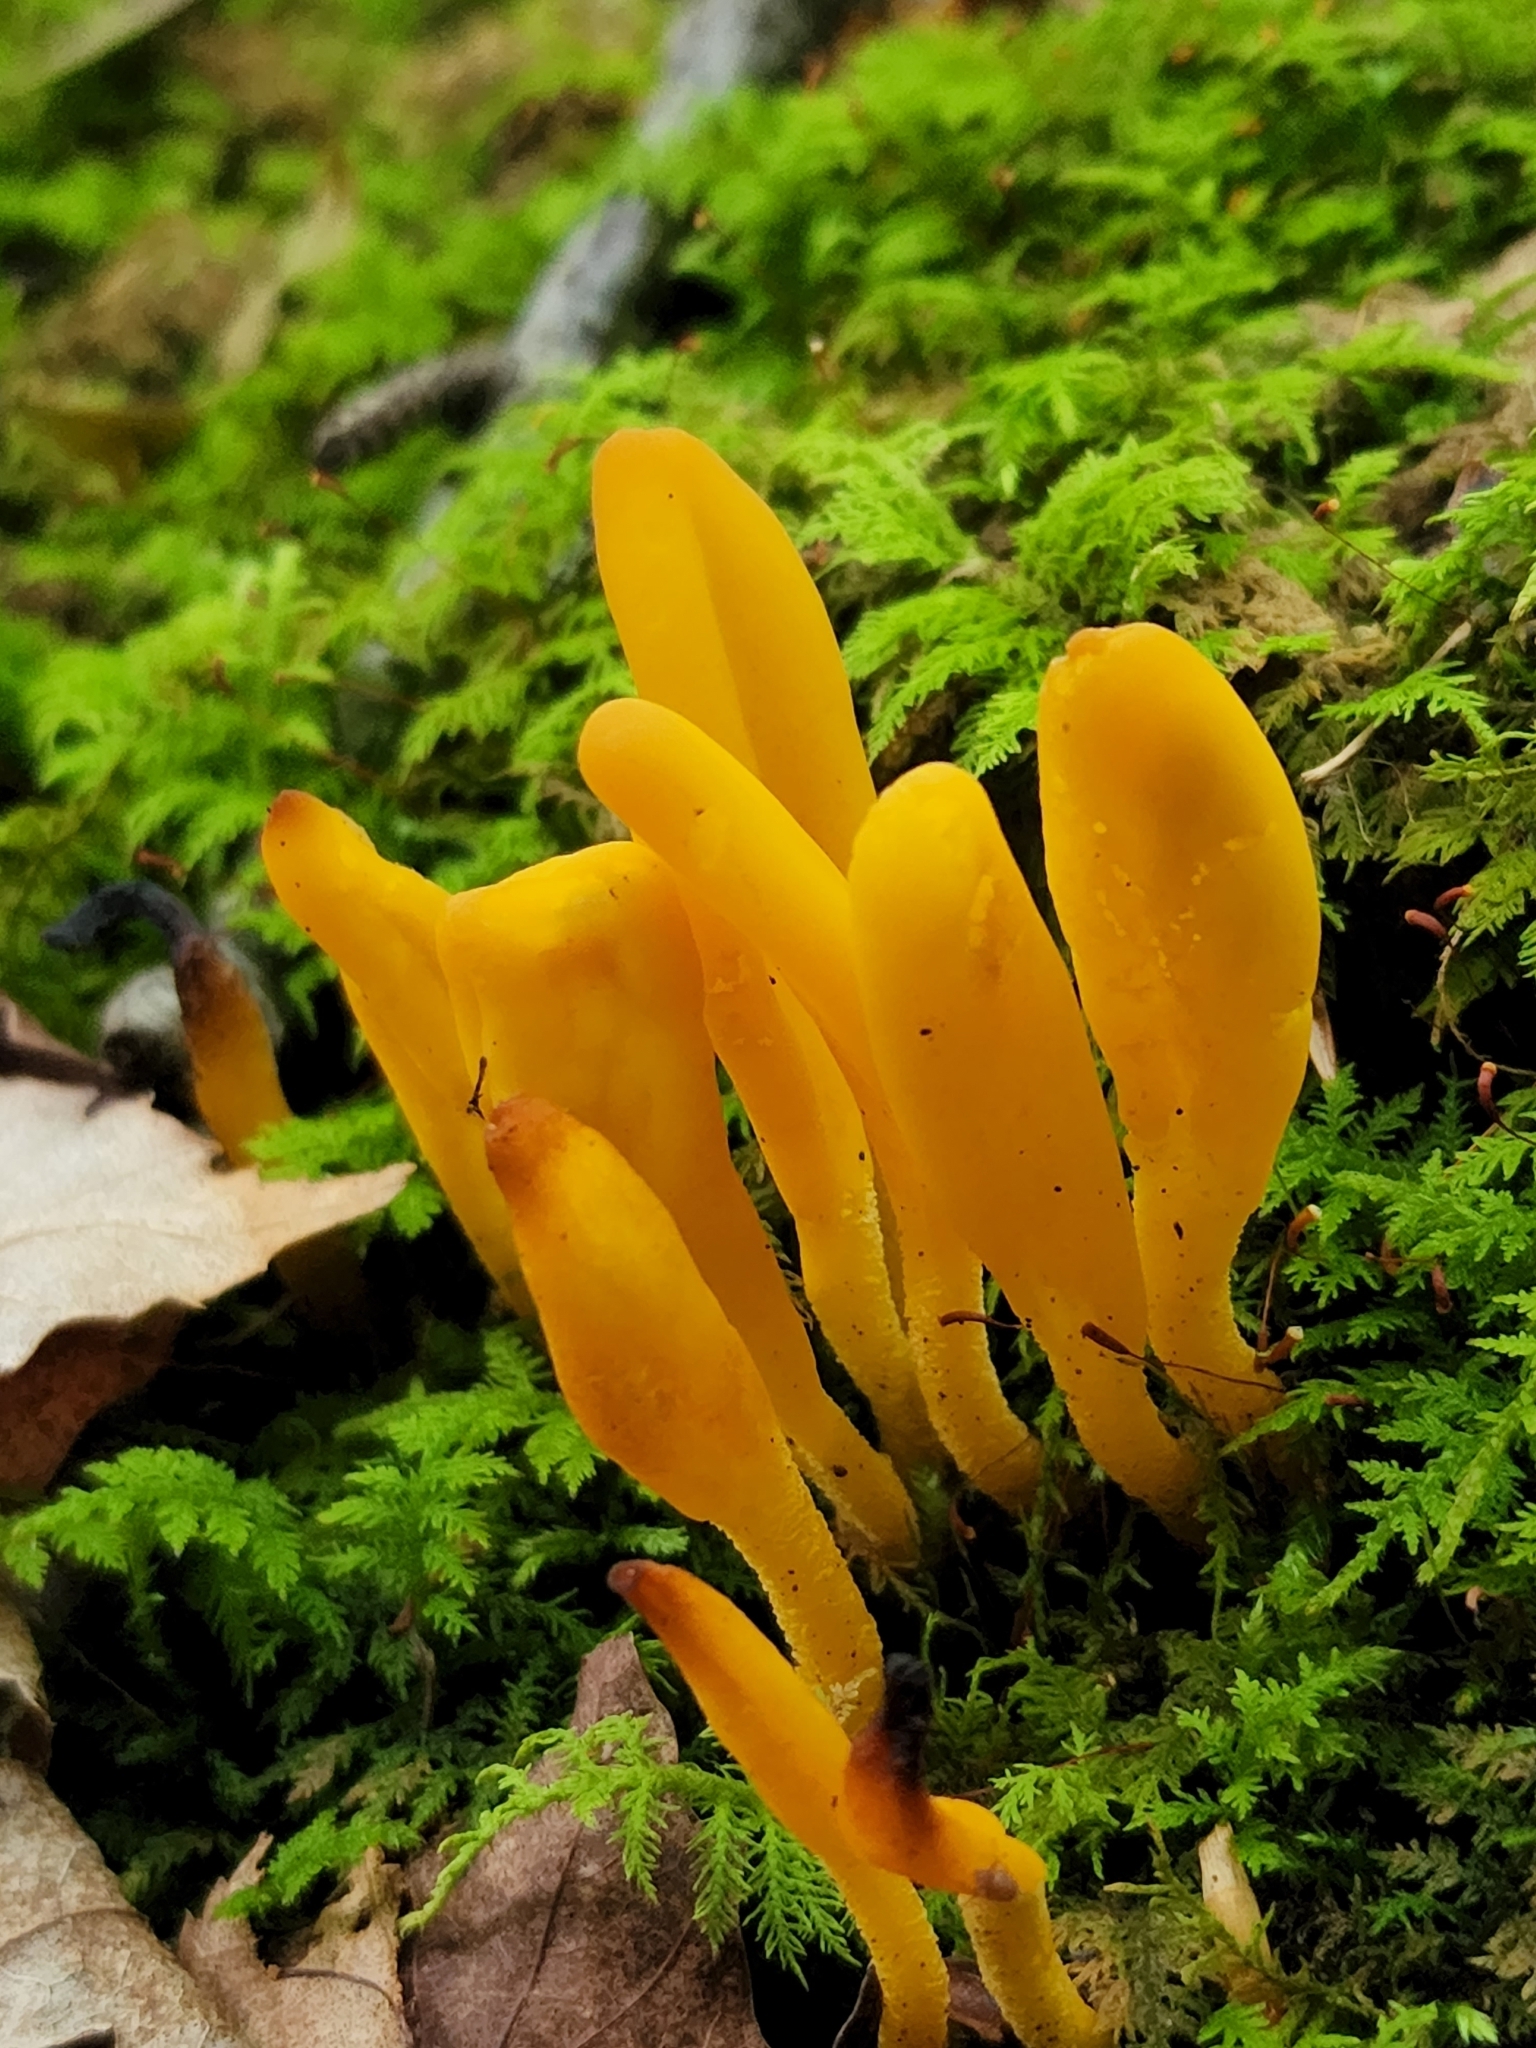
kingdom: Fungi
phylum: Ascomycota
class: Leotiomycetes
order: Leotiales
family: Leotiaceae
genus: Microglossum
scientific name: Microglossum rufum
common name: Orange earthtongue
